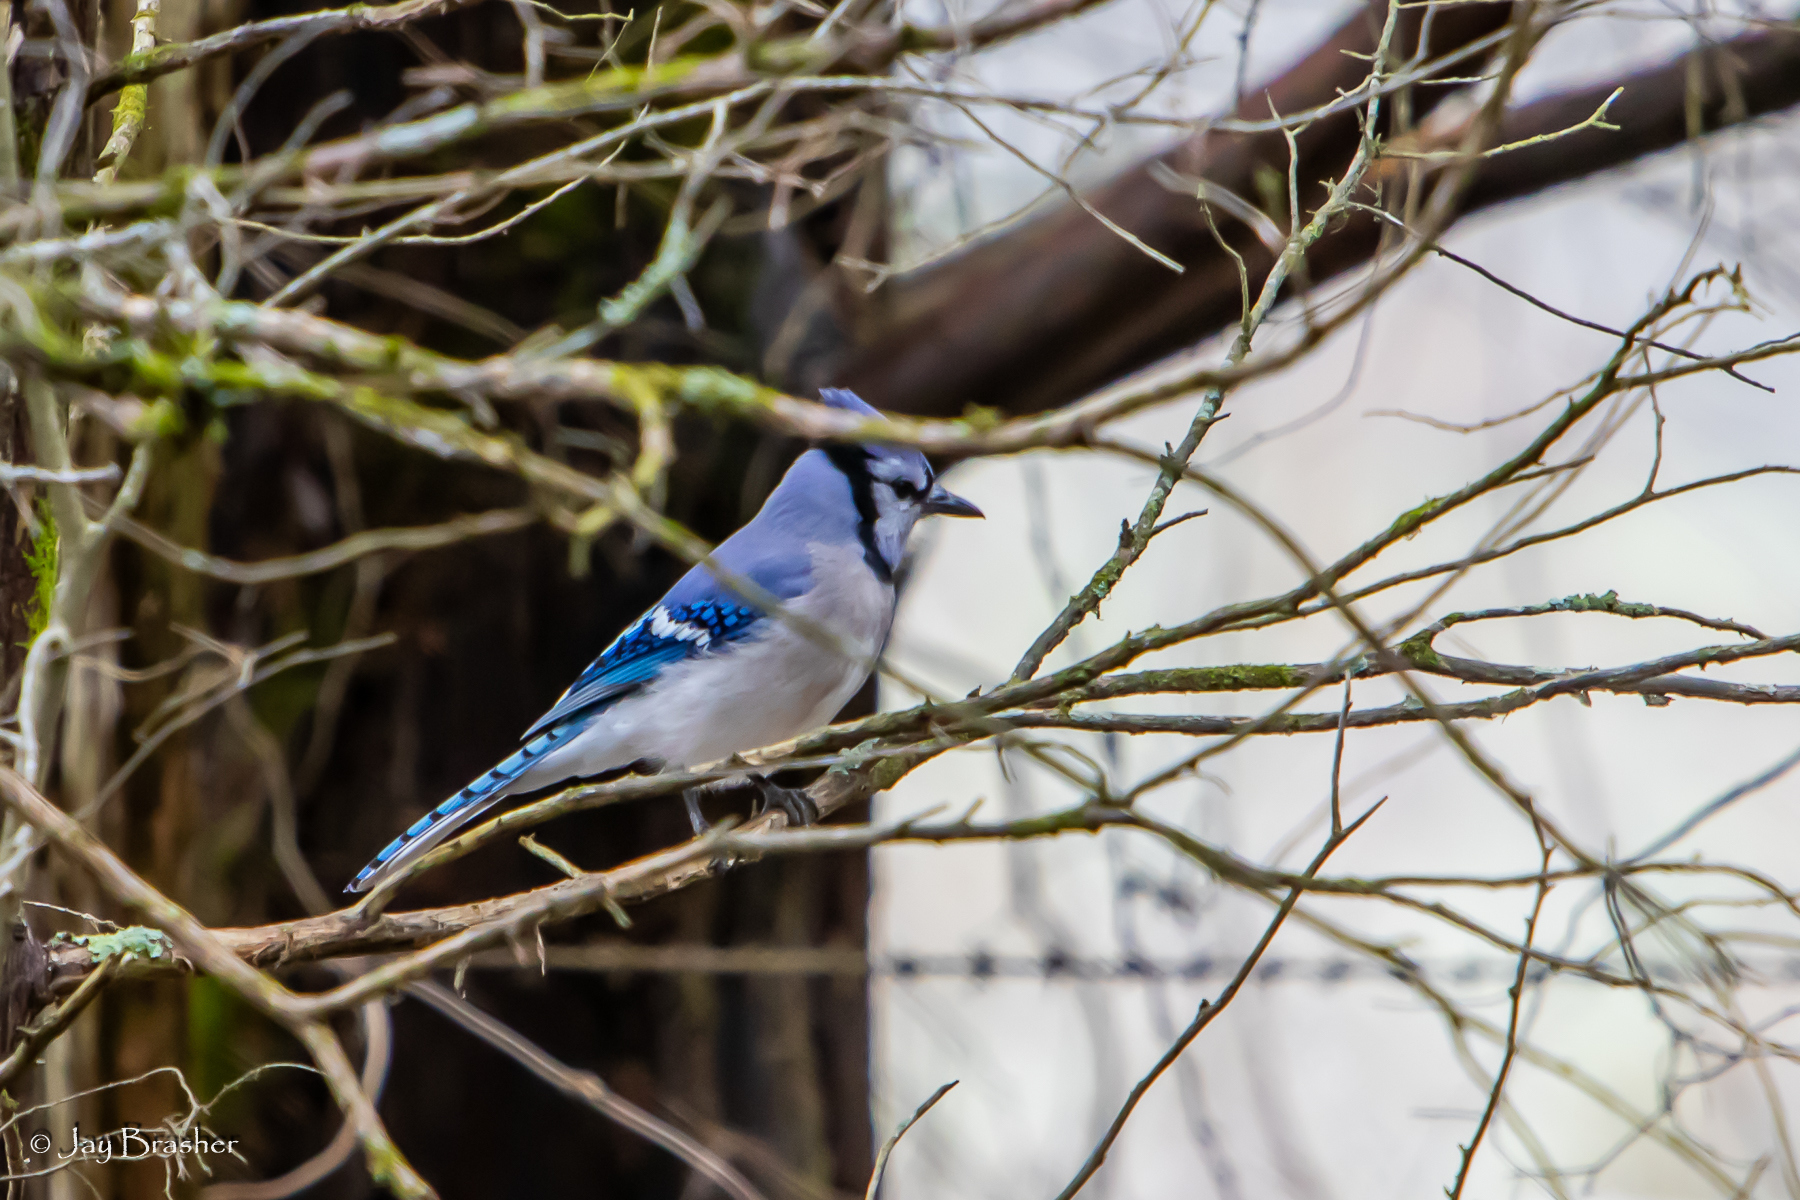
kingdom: Animalia
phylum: Chordata
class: Aves
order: Passeriformes
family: Corvidae
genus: Cyanocitta
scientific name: Cyanocitta cristata
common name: Blue jay
